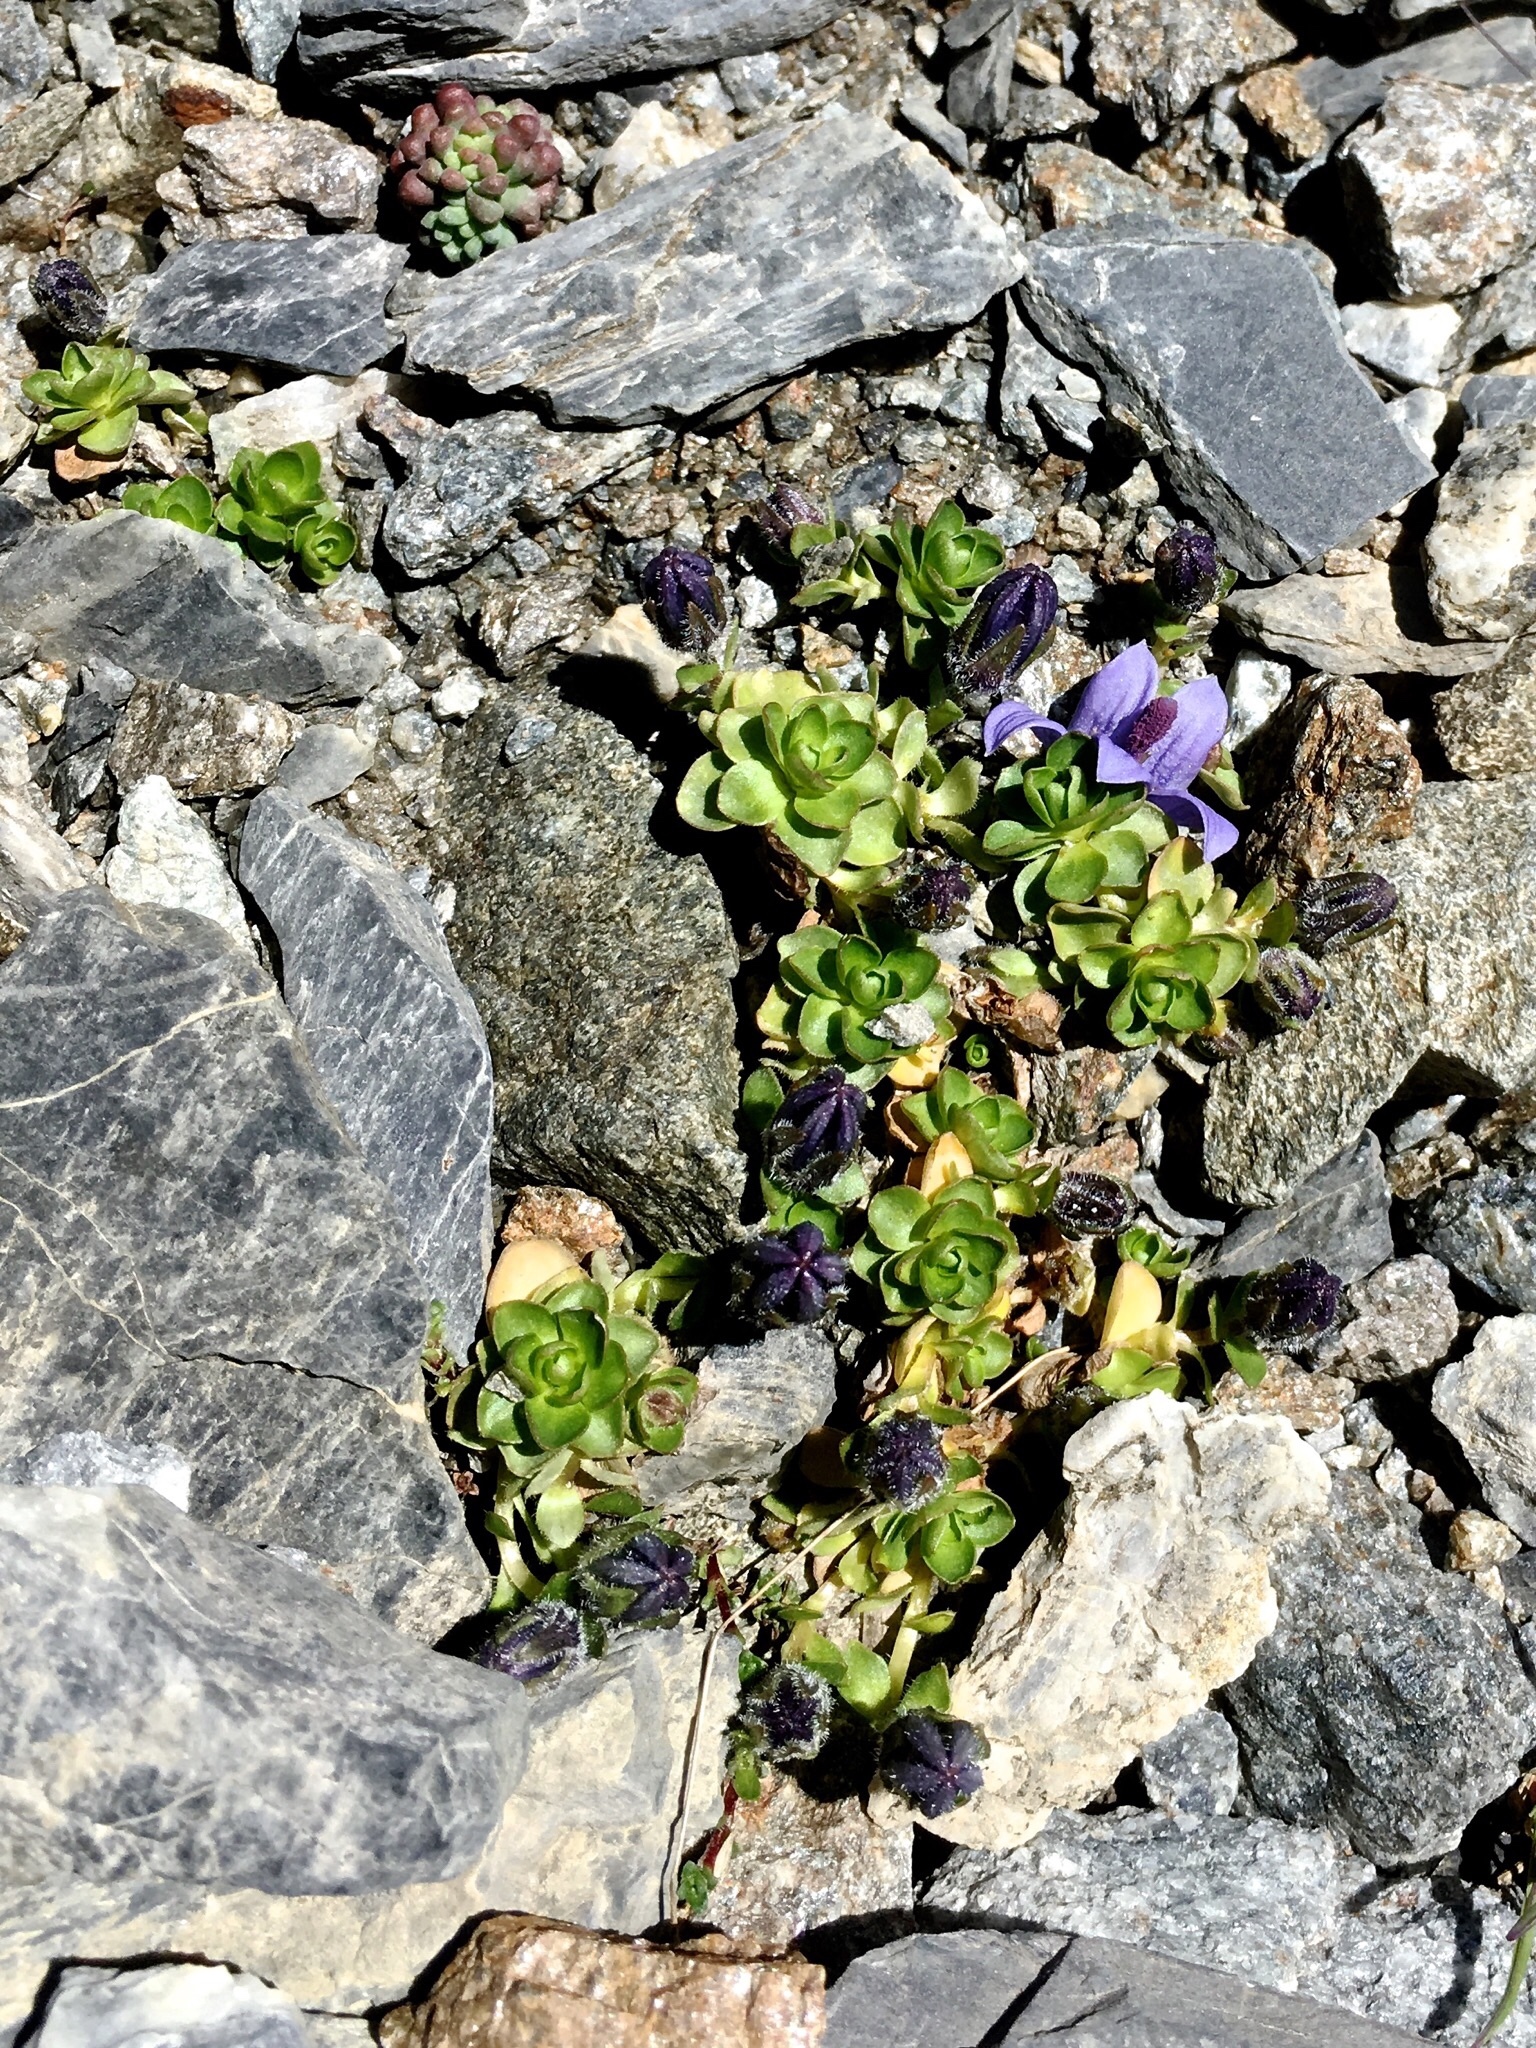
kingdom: Plantae
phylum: Tracheophyta
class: Magnoliopsida
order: Asterales
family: Campanulaceae
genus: Campanula
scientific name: Campanula cenisia
